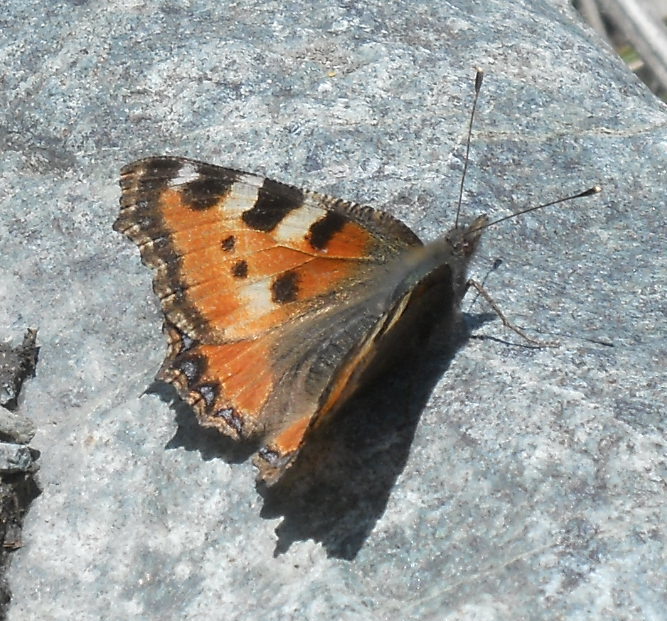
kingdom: Animalia
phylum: Arthropoda
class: Insecta
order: Lepidoptera
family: Nymphalidae
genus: Aglais
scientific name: Aglais urticae
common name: Small tortoiseshell
